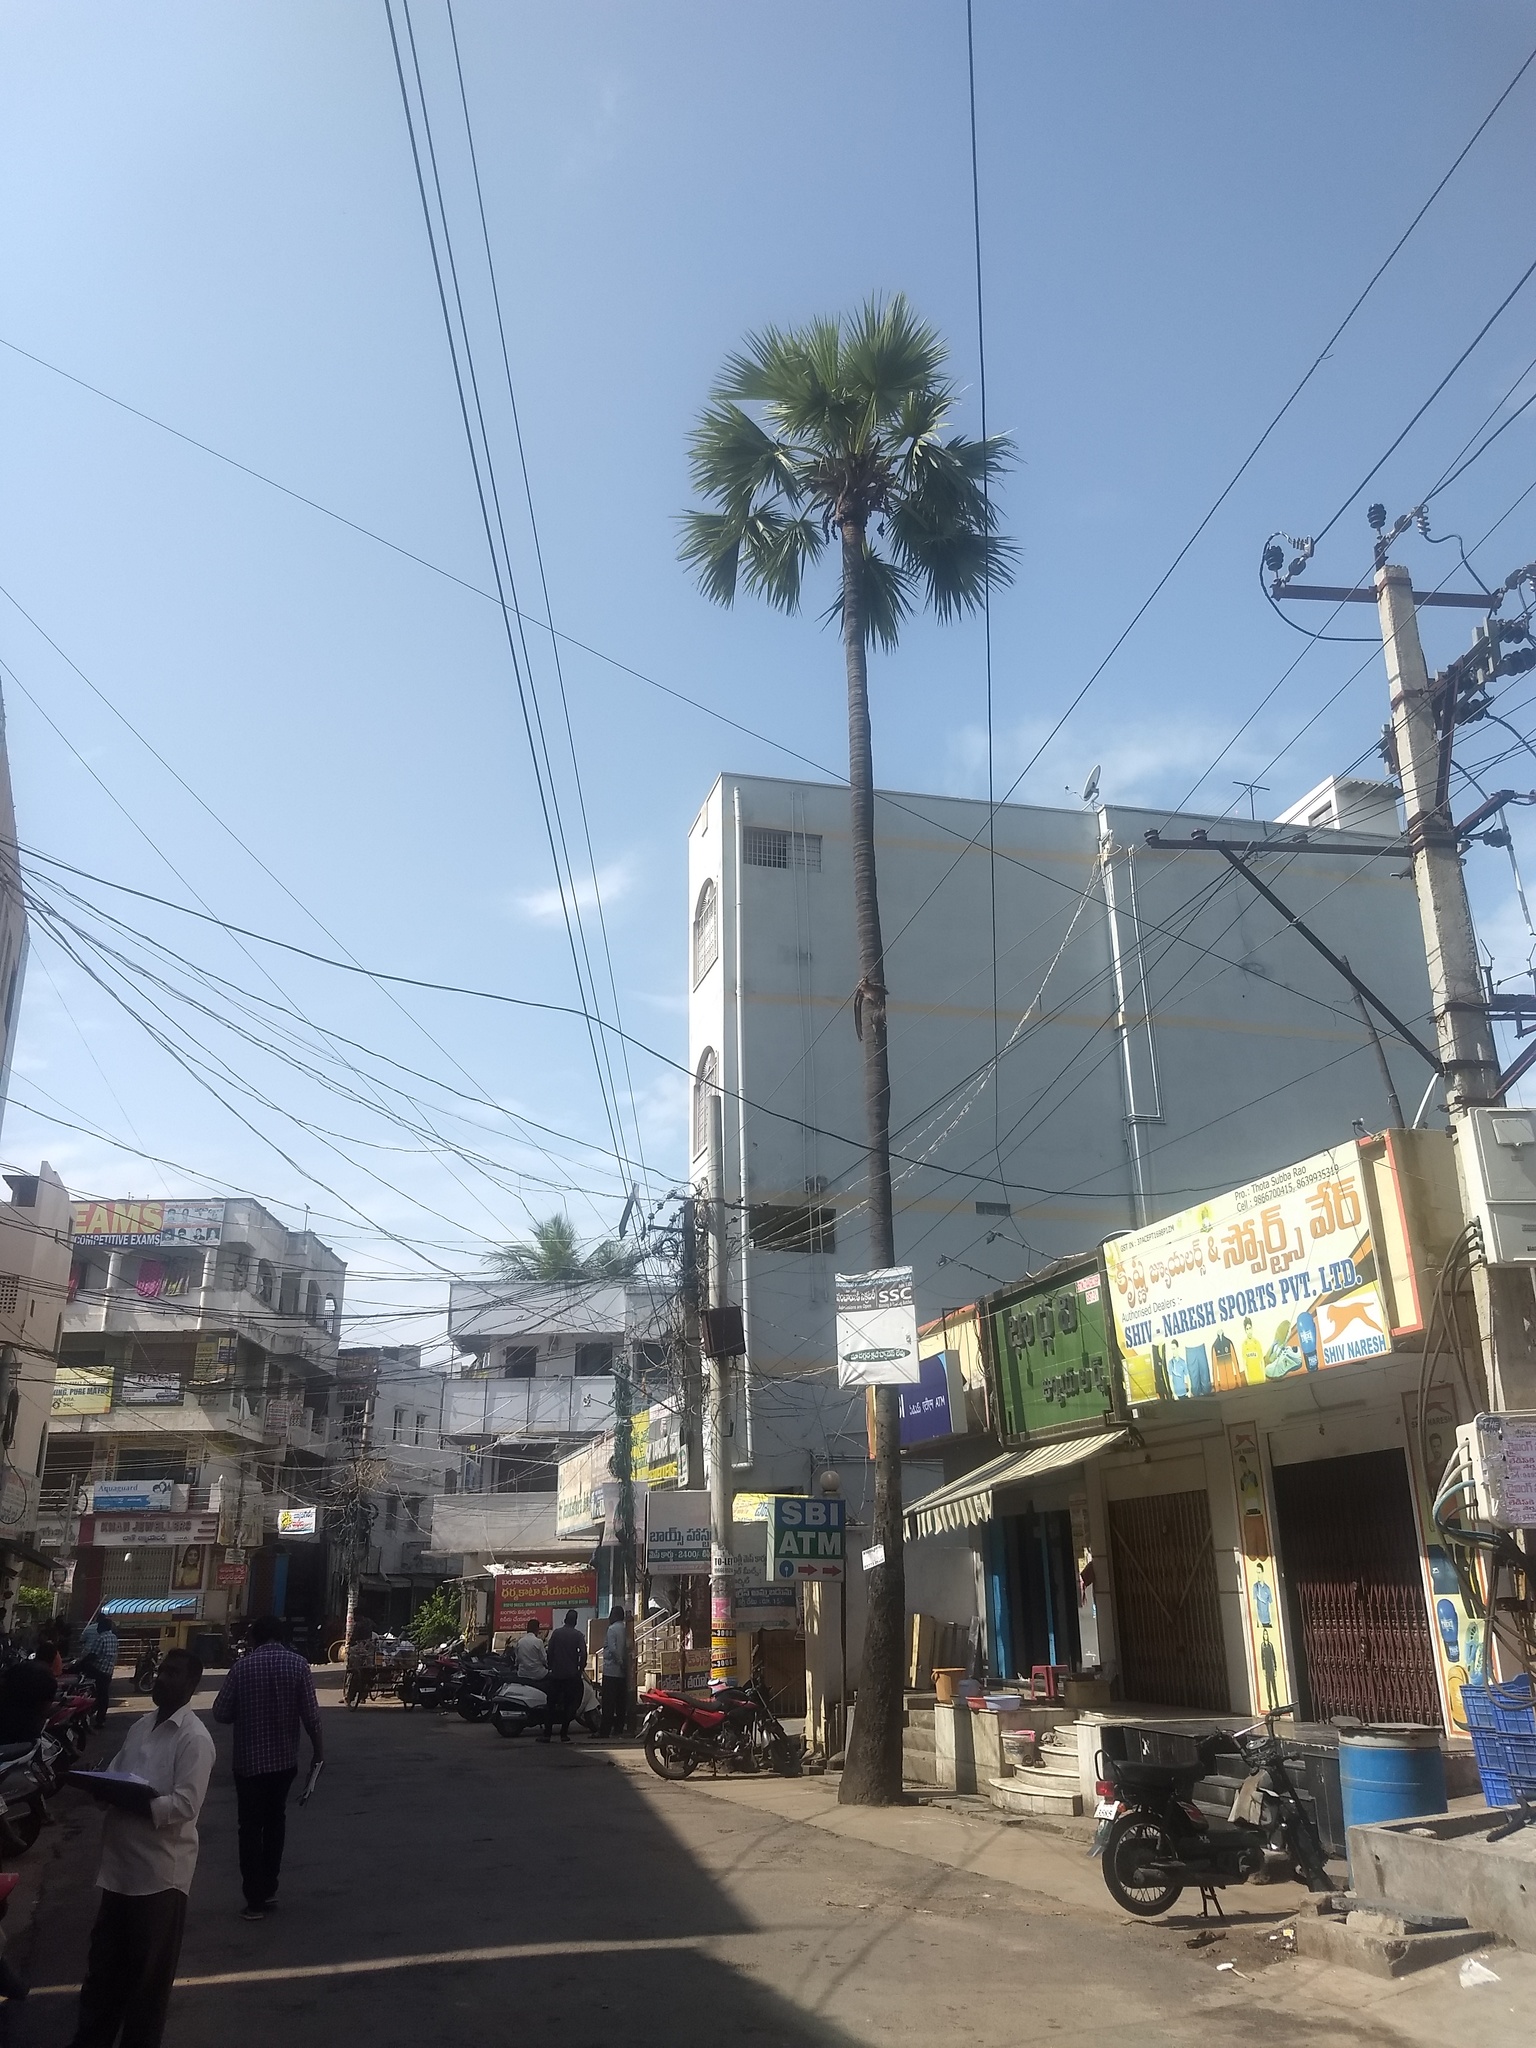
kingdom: Plantae
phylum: Tracheophyta
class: Liliopsida
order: Arecales
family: Arecaceae
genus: Borassus
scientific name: Borassus flabellifer
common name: Palmyra palm
